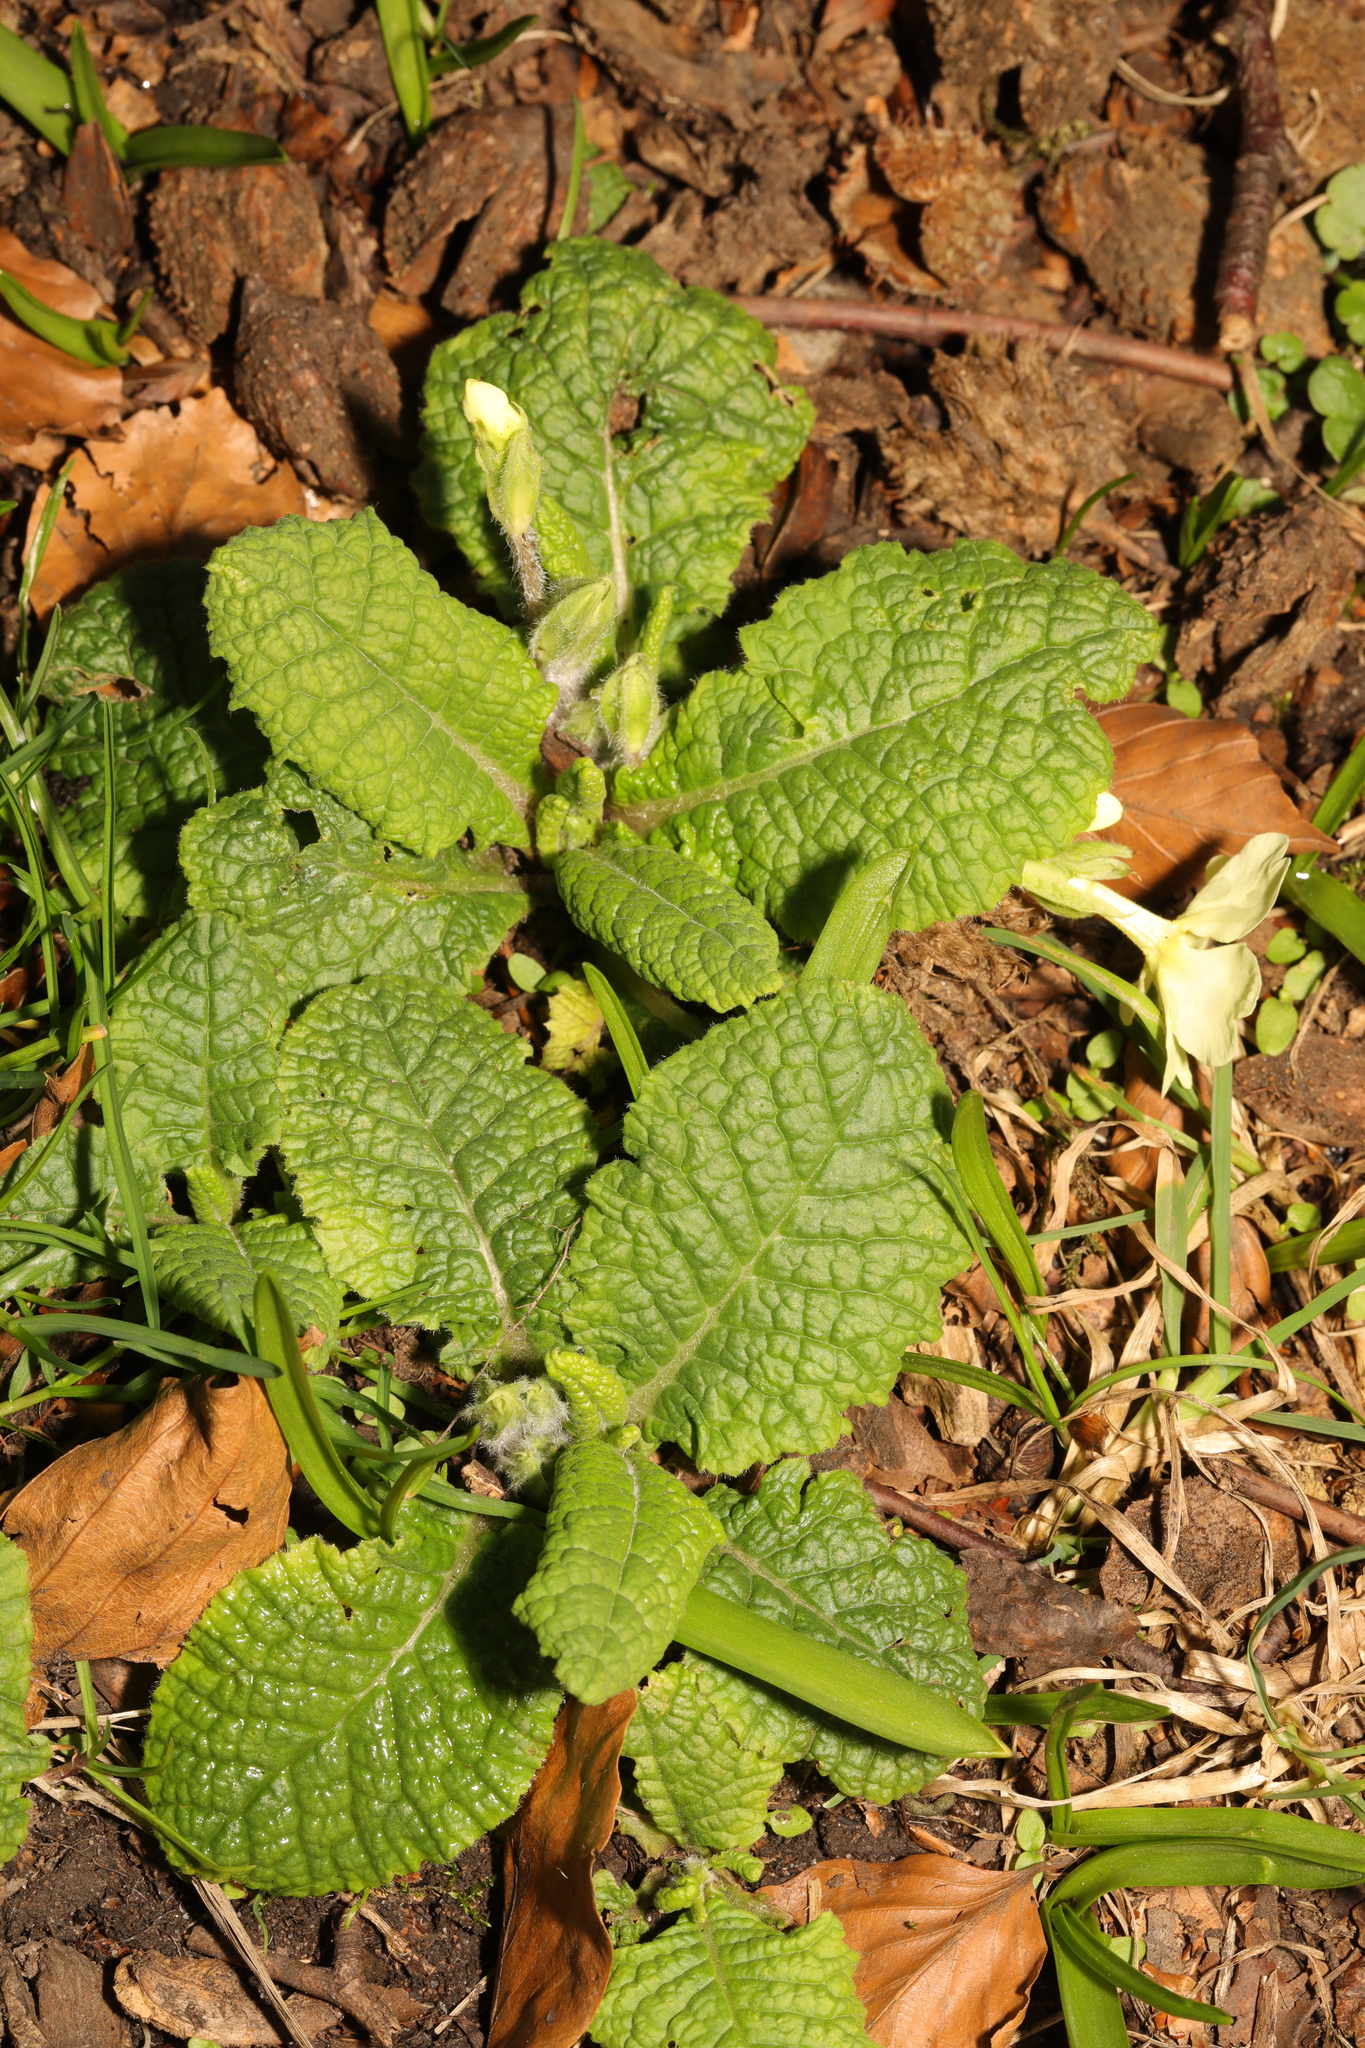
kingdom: Plantae
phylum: Tracheophyta
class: Magnoliopsida
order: Ericales
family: Primulaceae
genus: Primula
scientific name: Primula vulgaris
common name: Primrose
